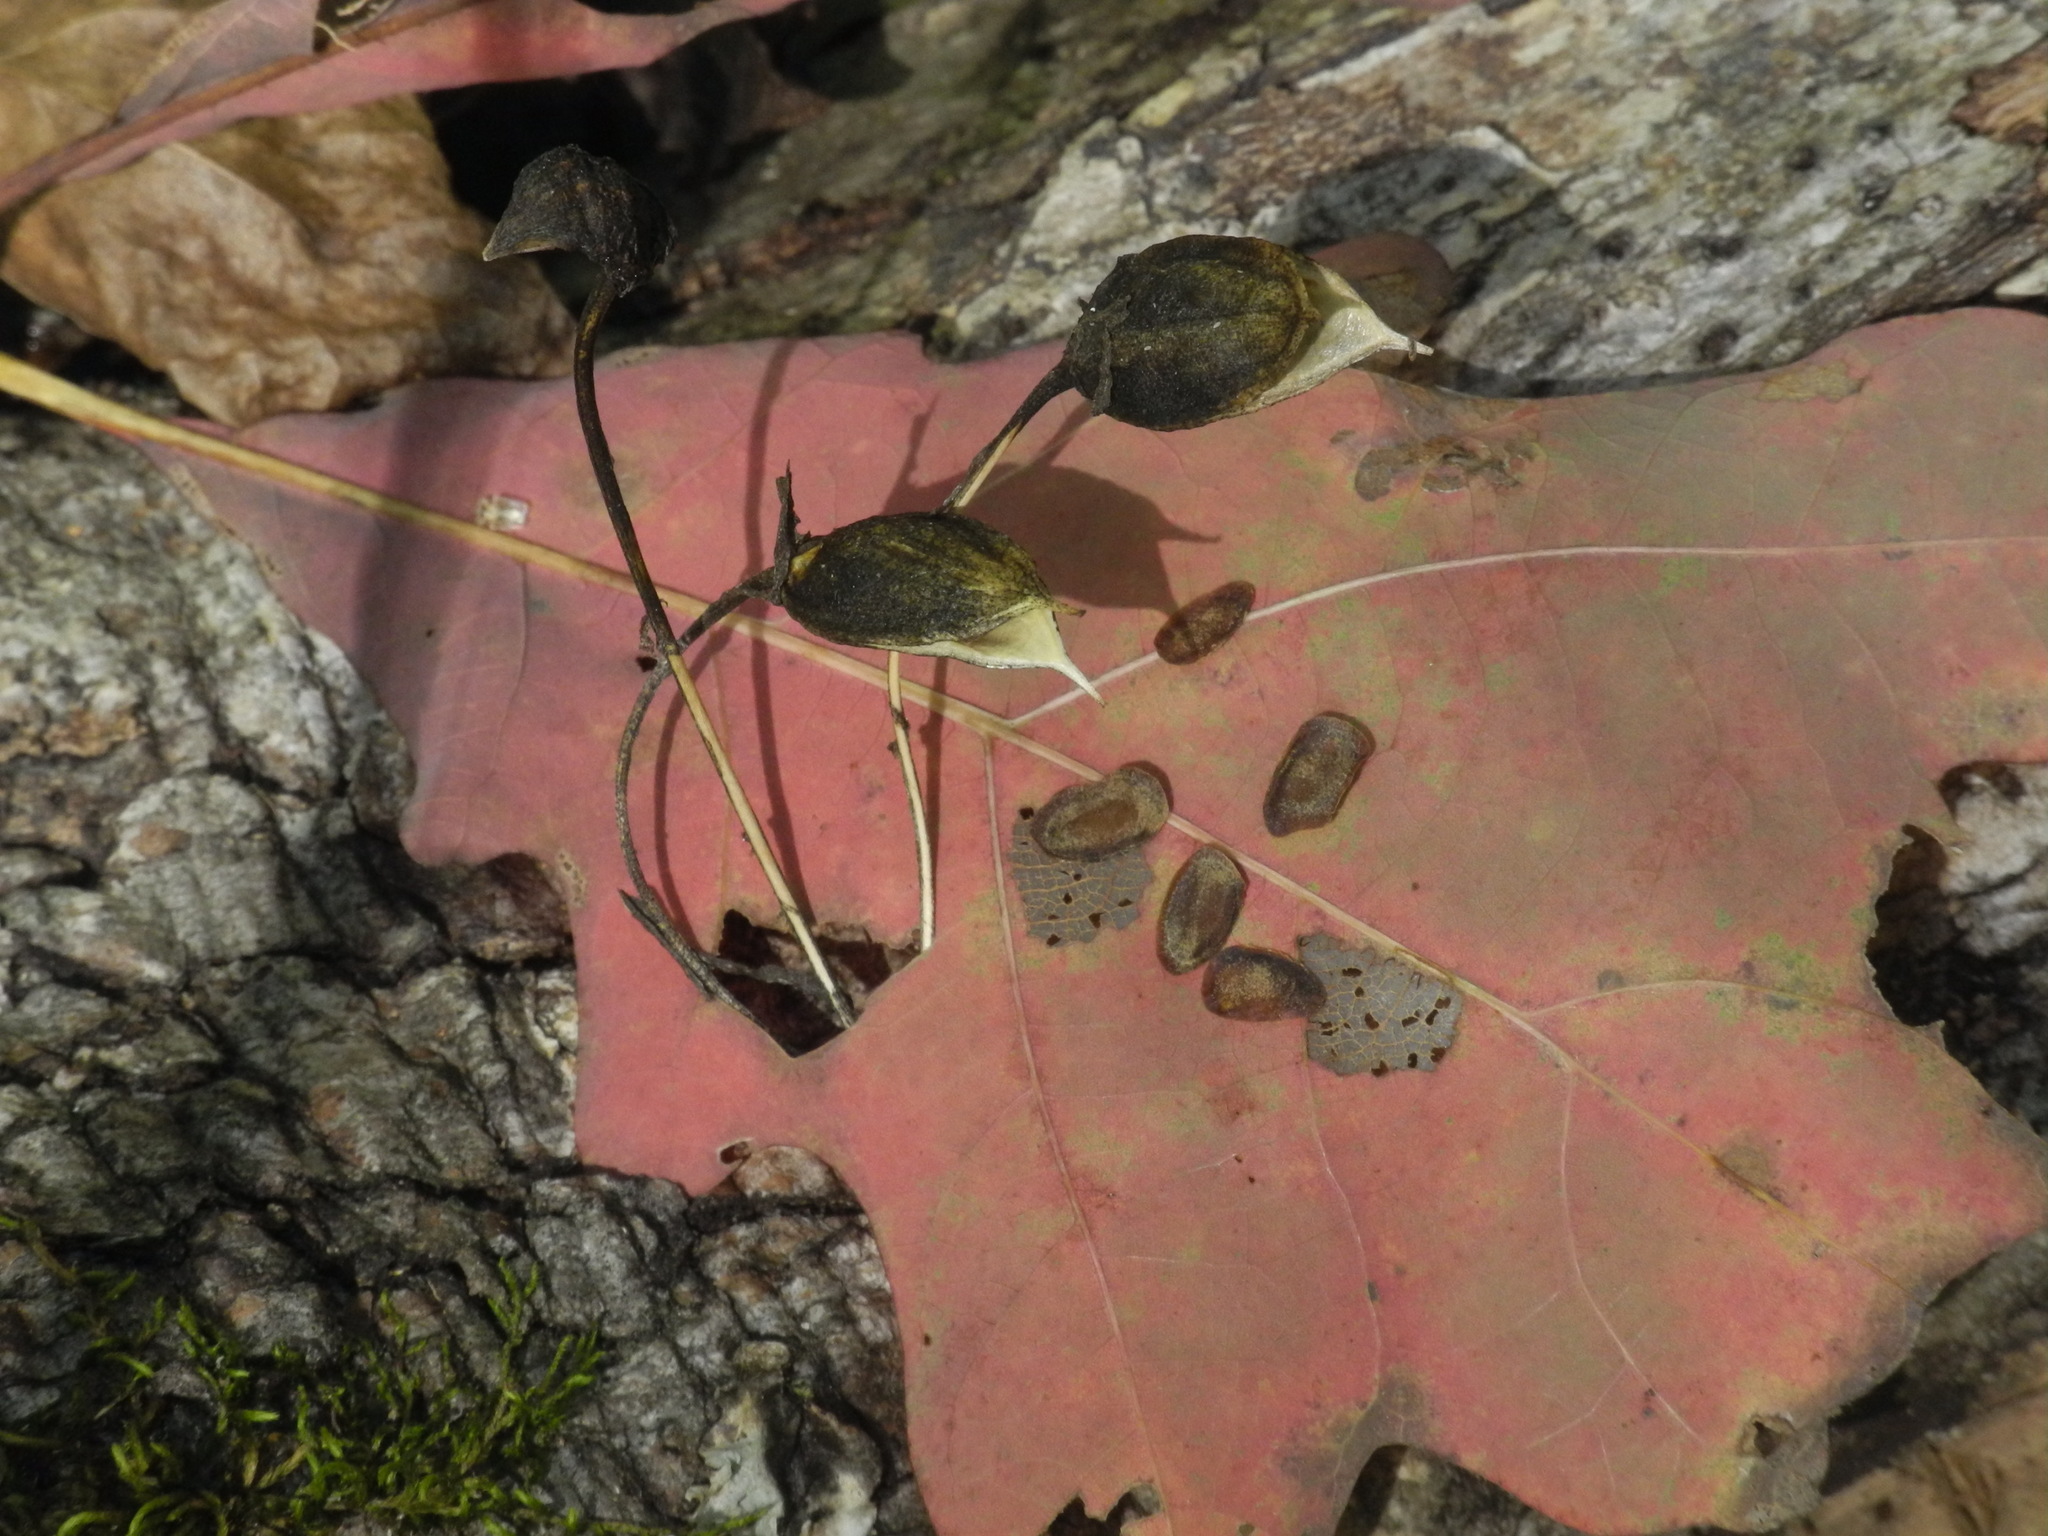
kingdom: Plantae
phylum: Tracheophyta
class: Magnoliopsida
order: Gentianales
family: Gentianaceae
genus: Frasera
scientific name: Frasera caroliniensis
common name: American columbo
